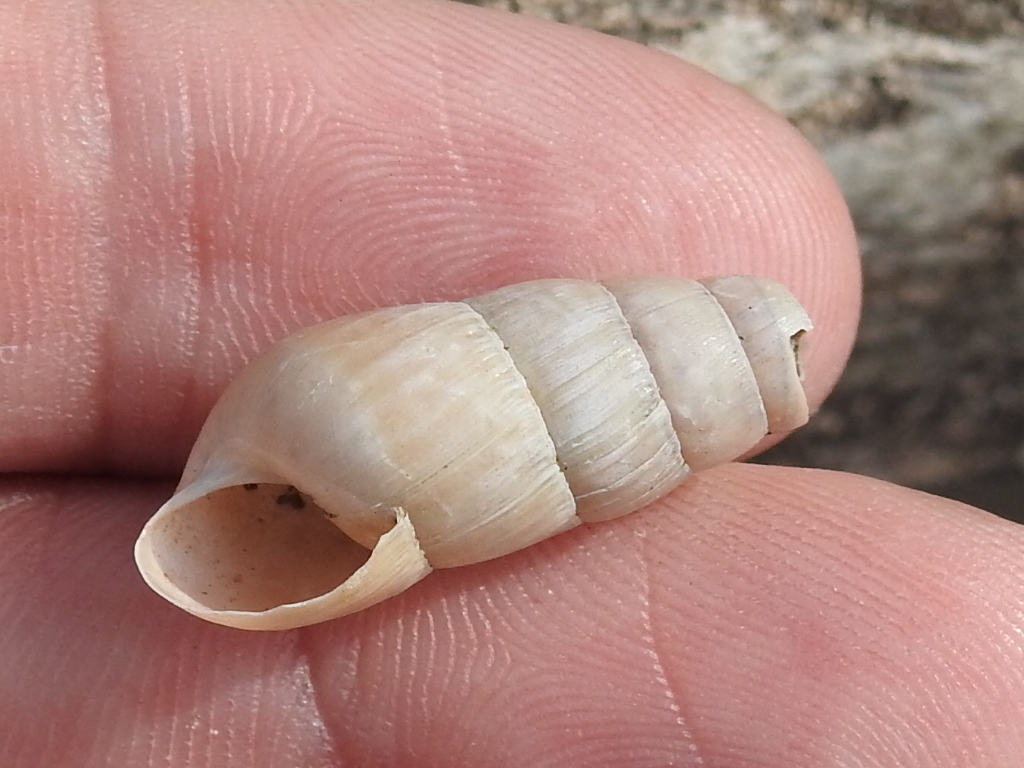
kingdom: Animalia
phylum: Mollusca
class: Gastropoda
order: Stylommatophora
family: Achatinidae
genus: Rumina
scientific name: Rumina decollata
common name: Decollate snail
